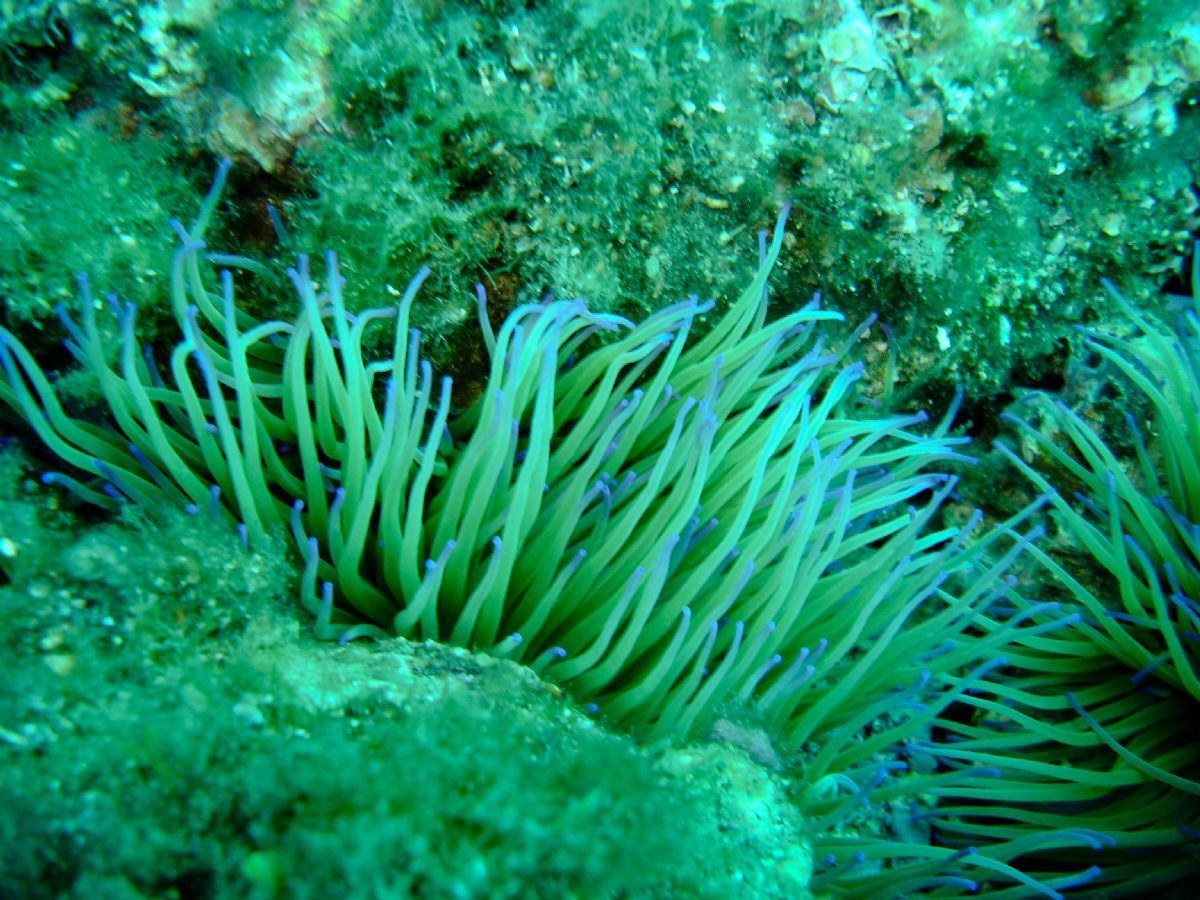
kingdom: Animalia
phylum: Cnidaria
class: Anthozoa
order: Actiniaria
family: Actiniidae
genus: Anemonia
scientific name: Anemonia viridis
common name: Snakelocks anemone
